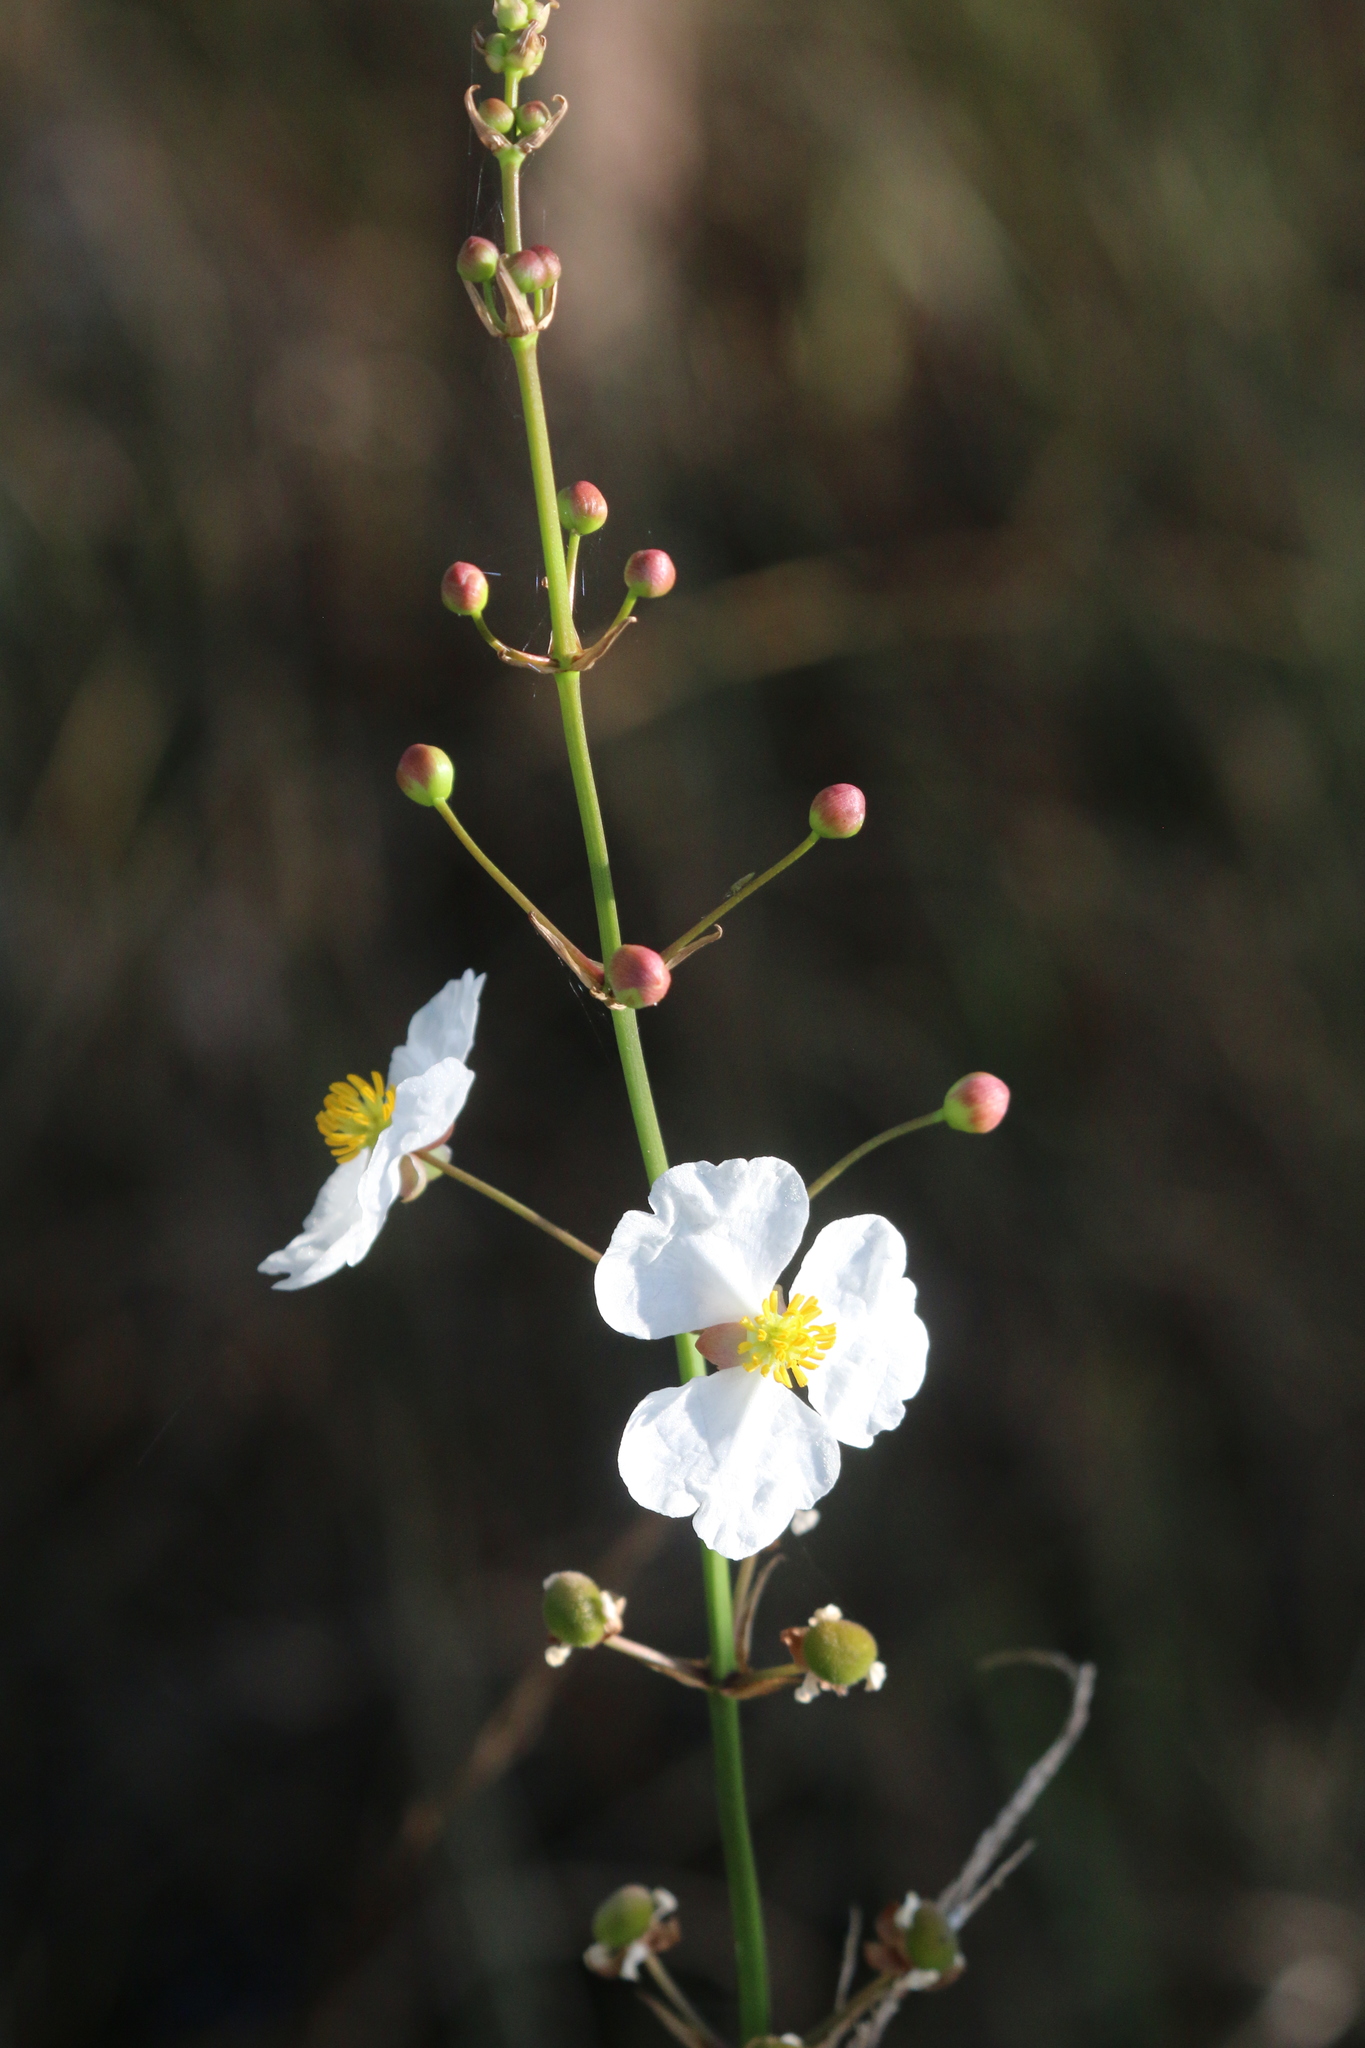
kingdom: Plantae
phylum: Tracheophyta
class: Liliopsida
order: Alismatales
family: Alismataceae
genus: Sagittaria
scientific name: Sagittaria lancifolia
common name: Lance-leaf arrowhead
